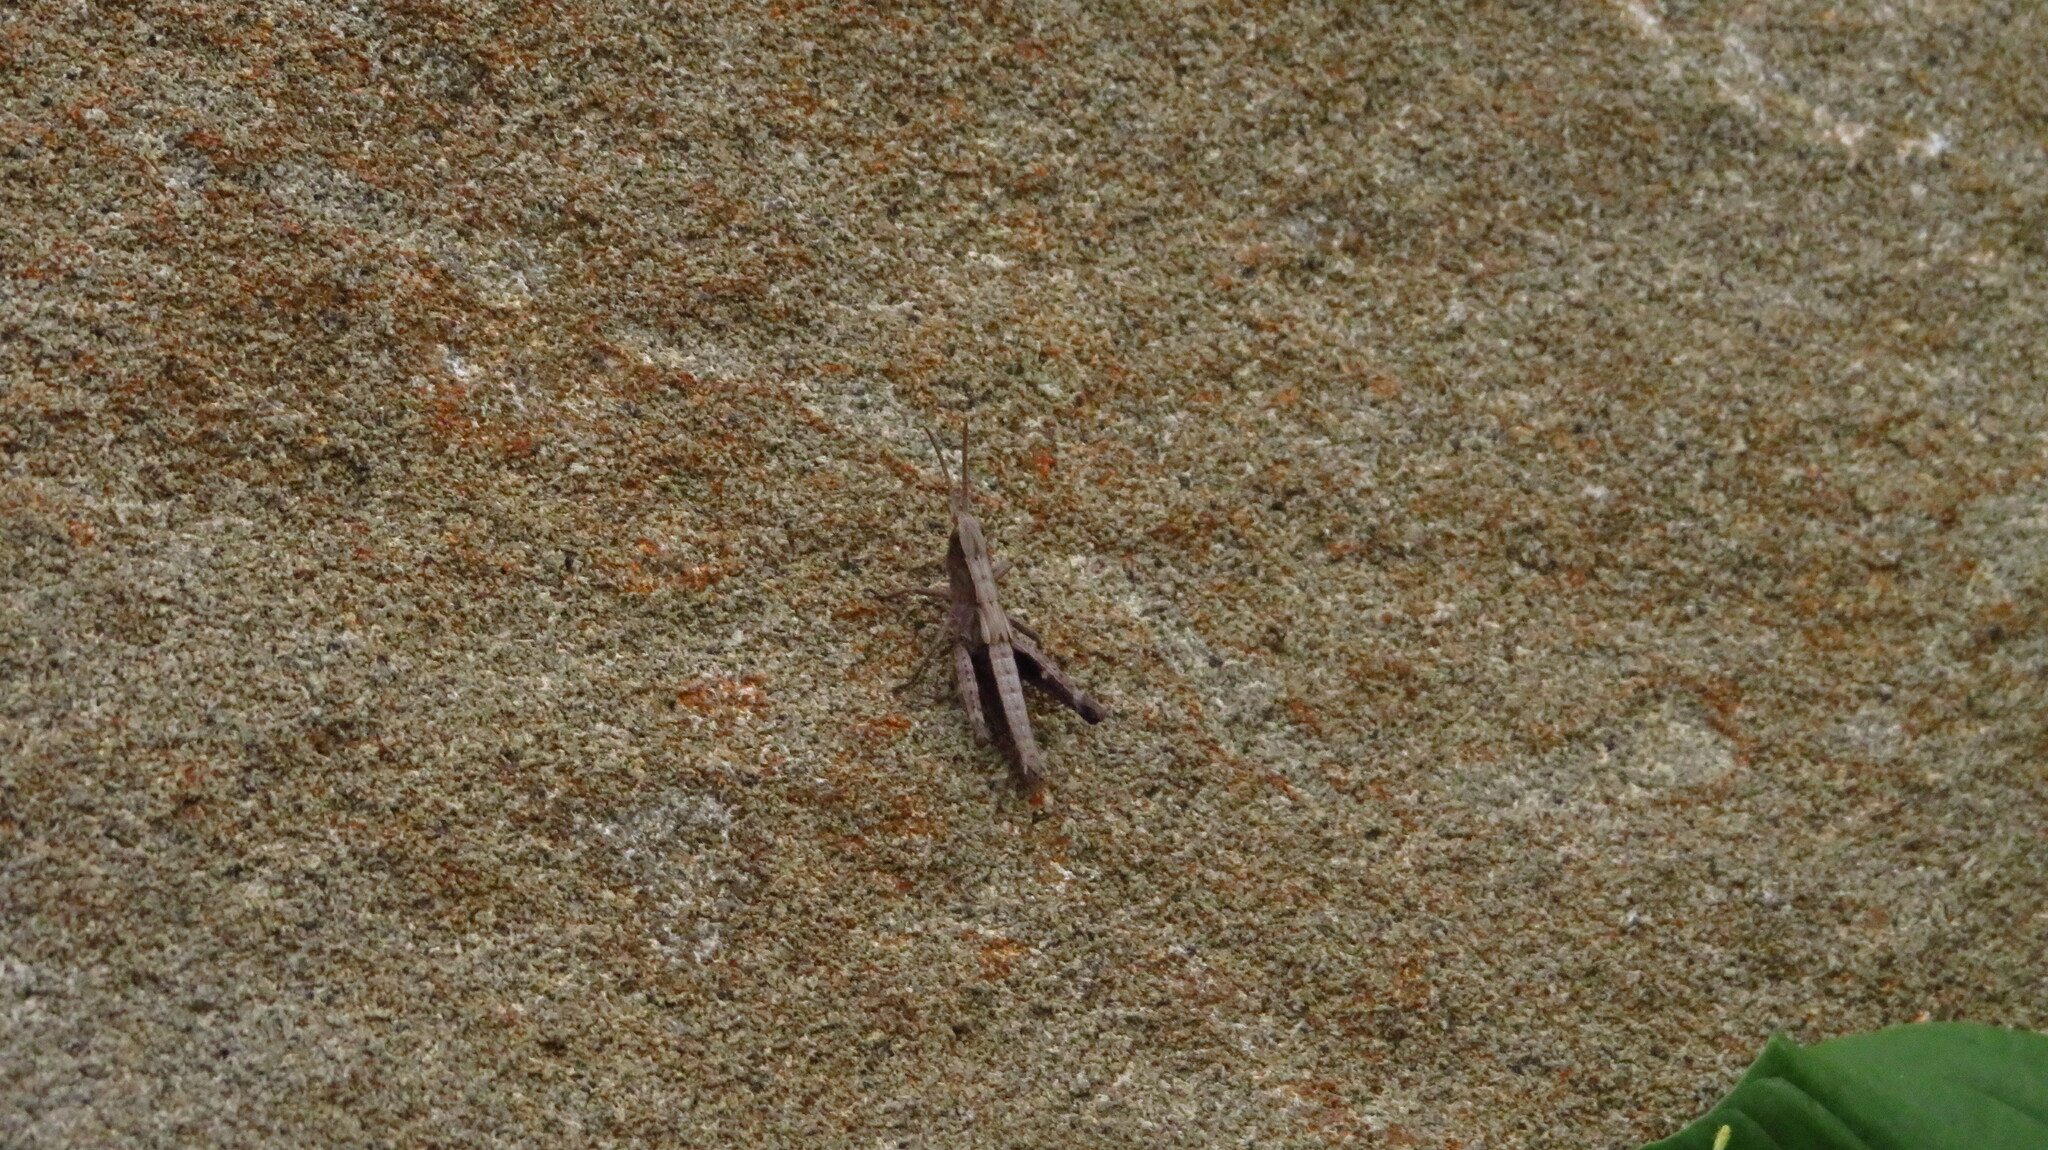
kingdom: Animalia
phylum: Arthropoda
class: Insecta
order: Orthoptera
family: Acrididae
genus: Chloealtis
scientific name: Chloealtis conspersa
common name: Sprinkled broad-winged grasshopper
